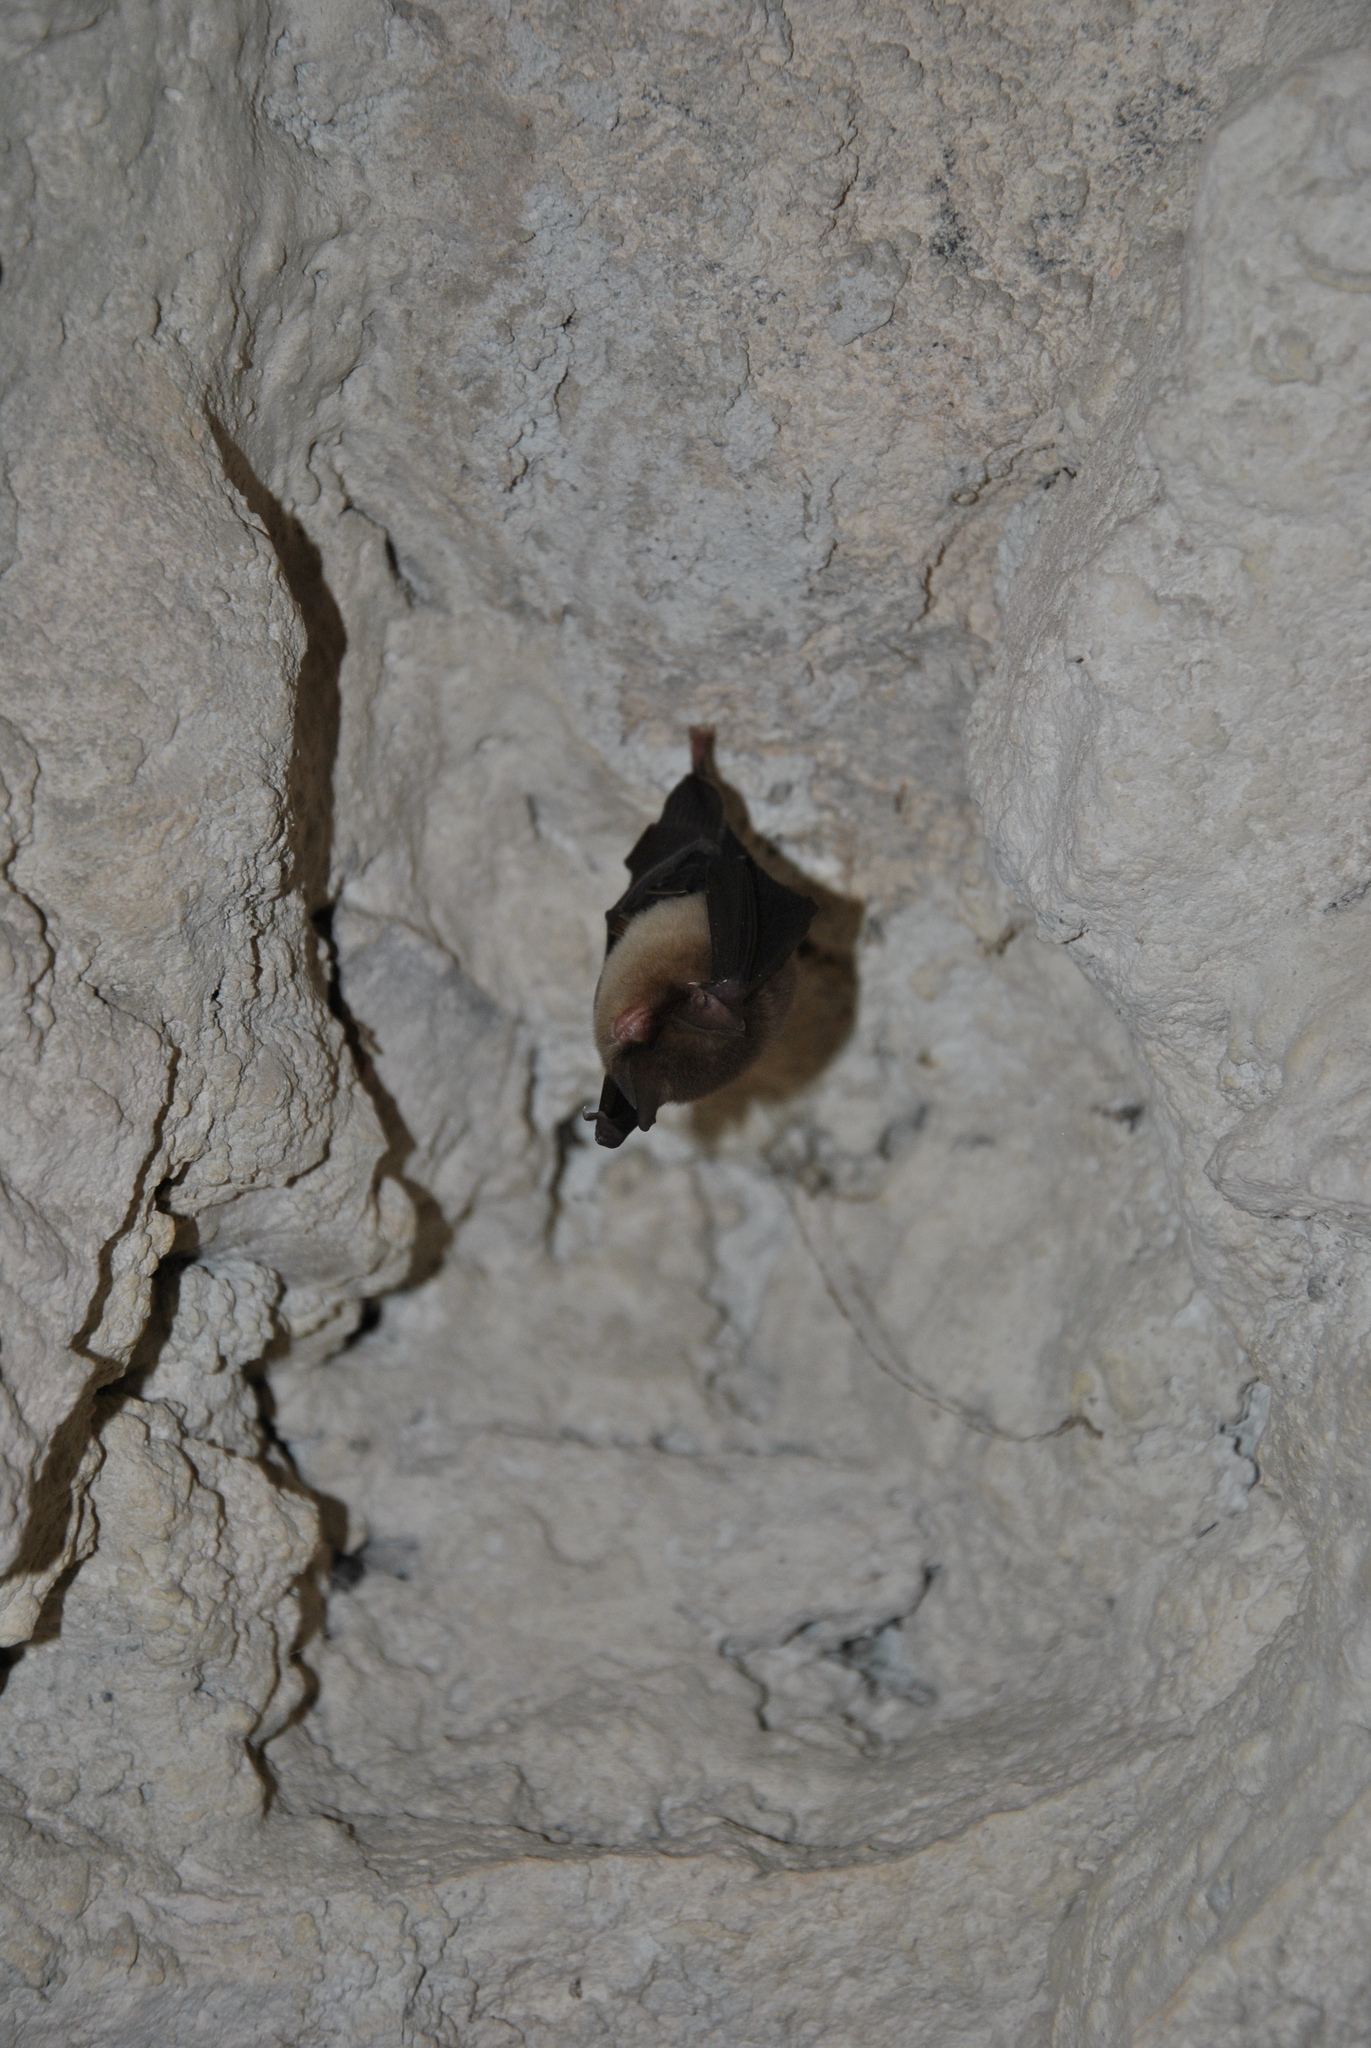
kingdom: Animalia
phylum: Chordata
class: Mammalia
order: Chiroptera
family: Natalidae
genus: Natalus
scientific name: Natalus mexicanus
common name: Mexican funnel-eared bat
